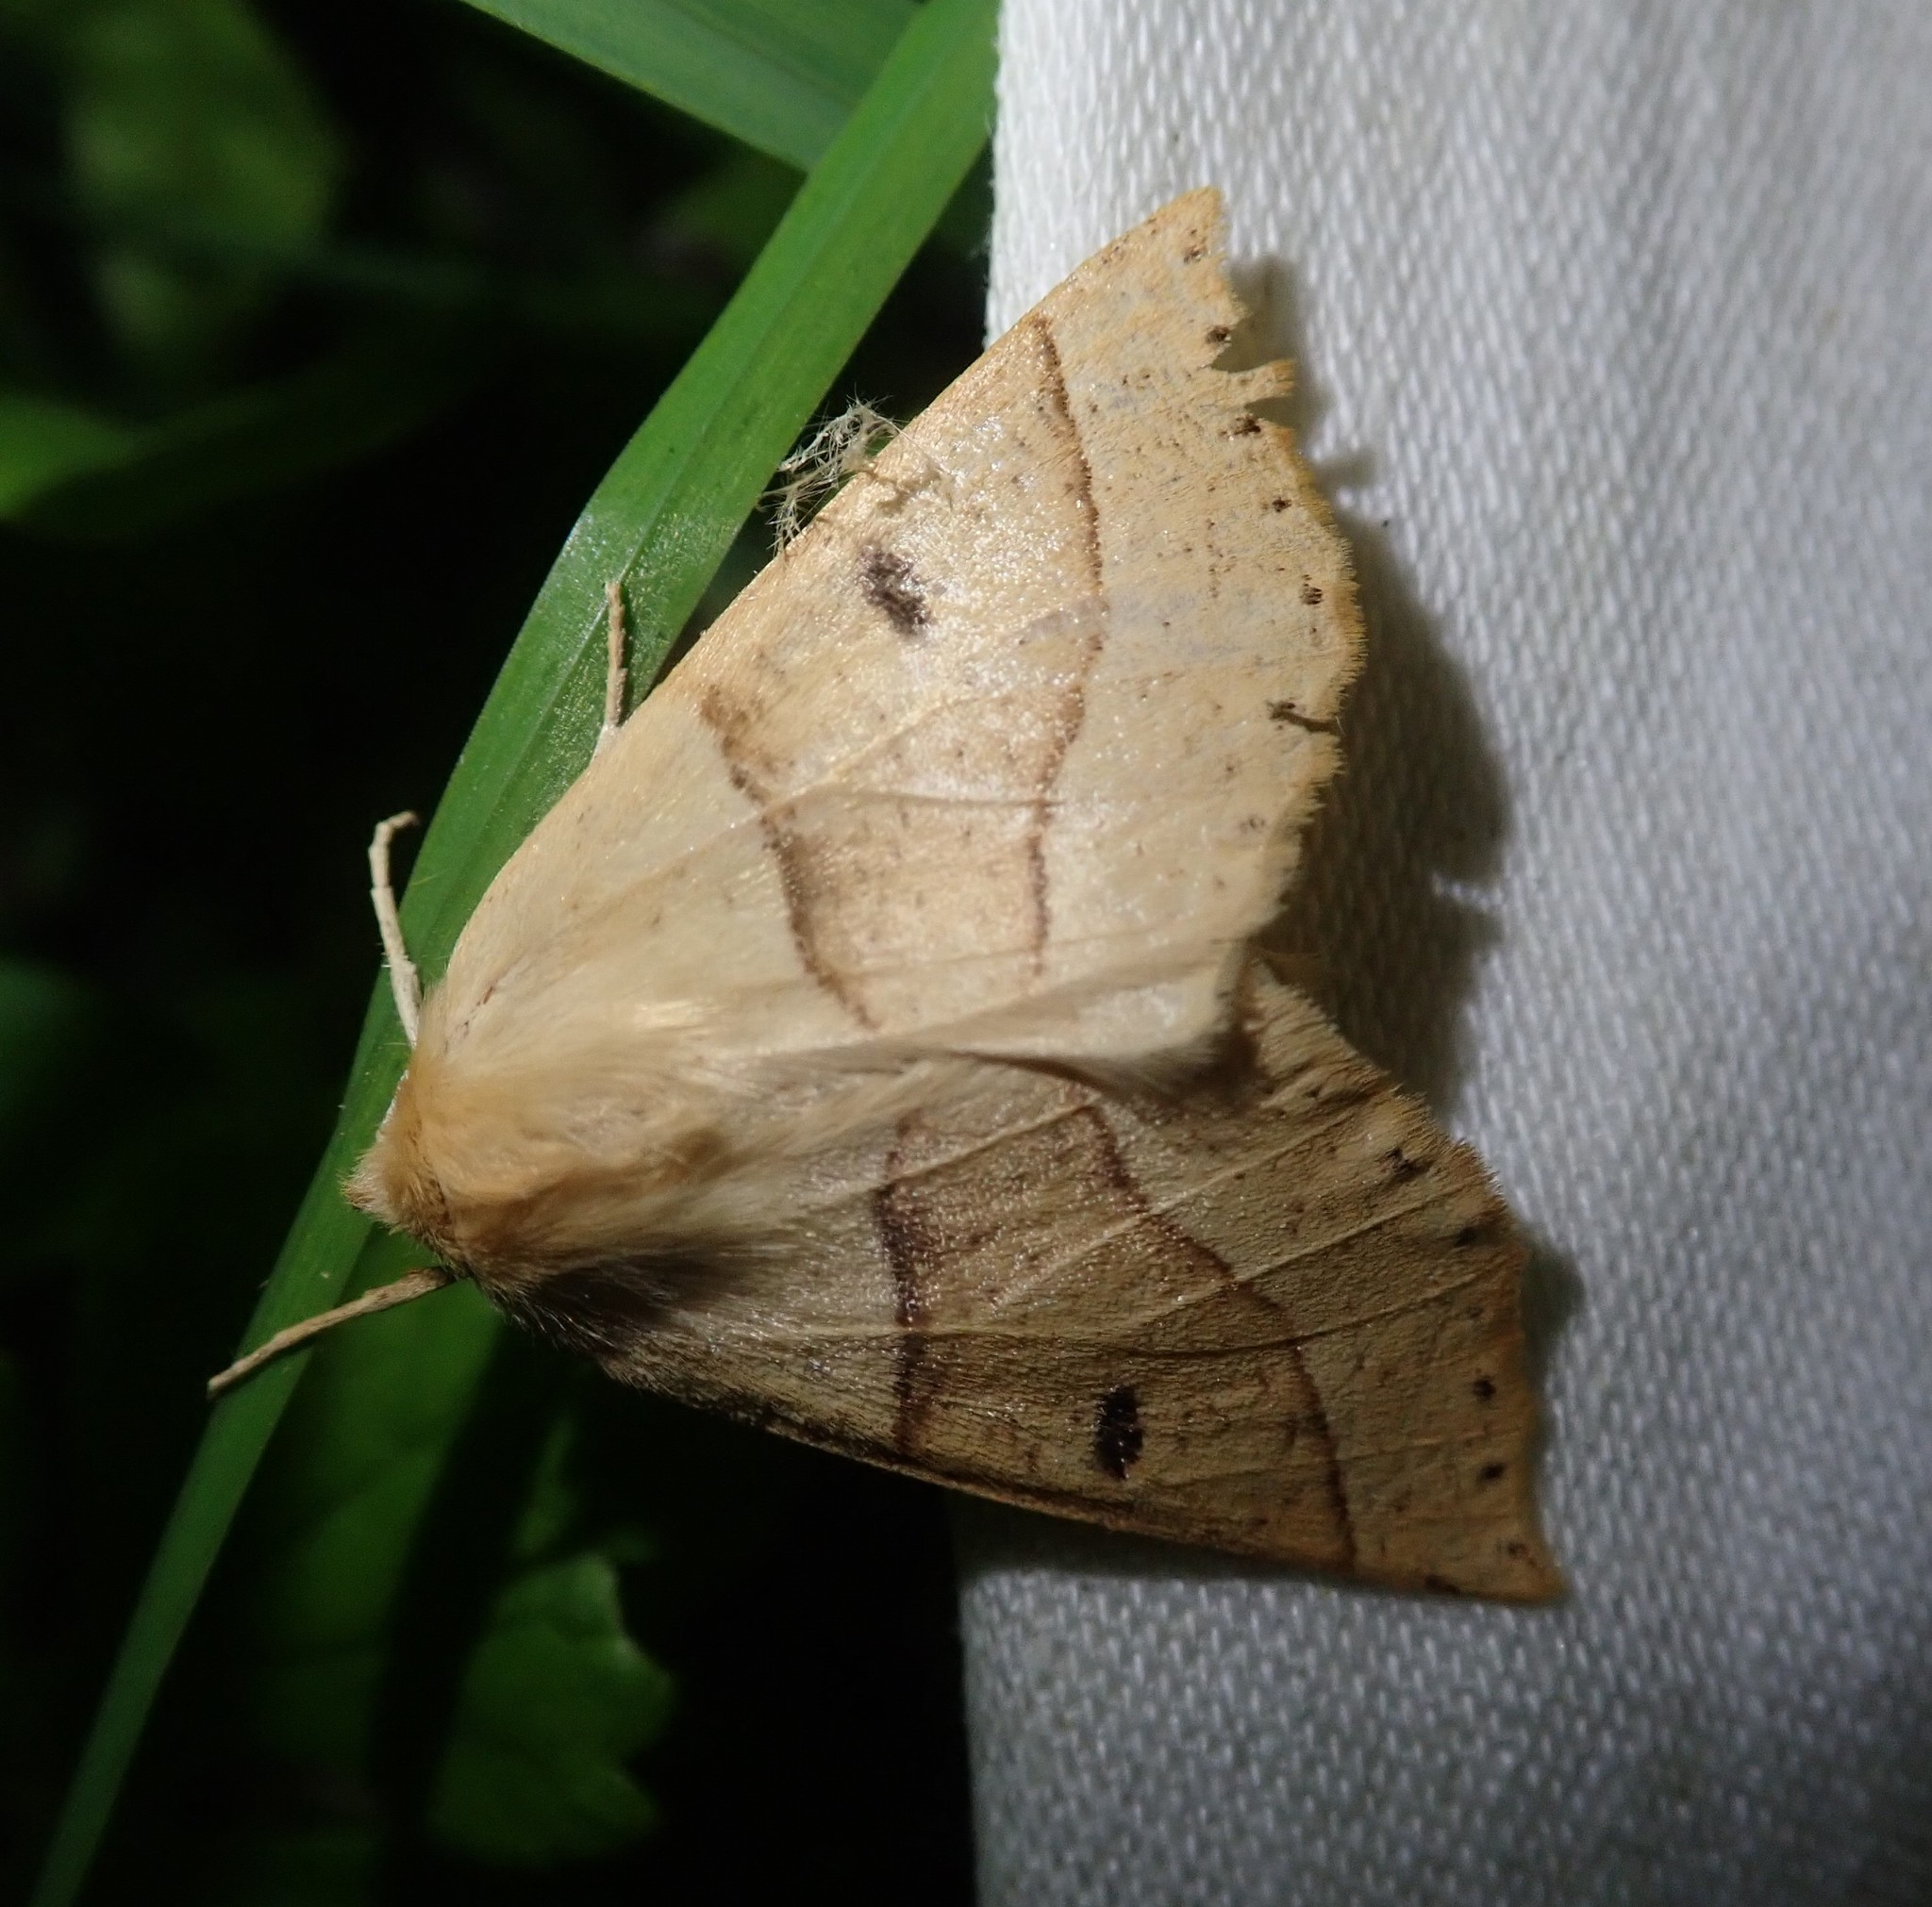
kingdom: Animalia
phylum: Arthropoda
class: Insecta
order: Lepidoptera
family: Geometridae
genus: Crocallis
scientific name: Crocallis elinguaria
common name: Scalloped oak
